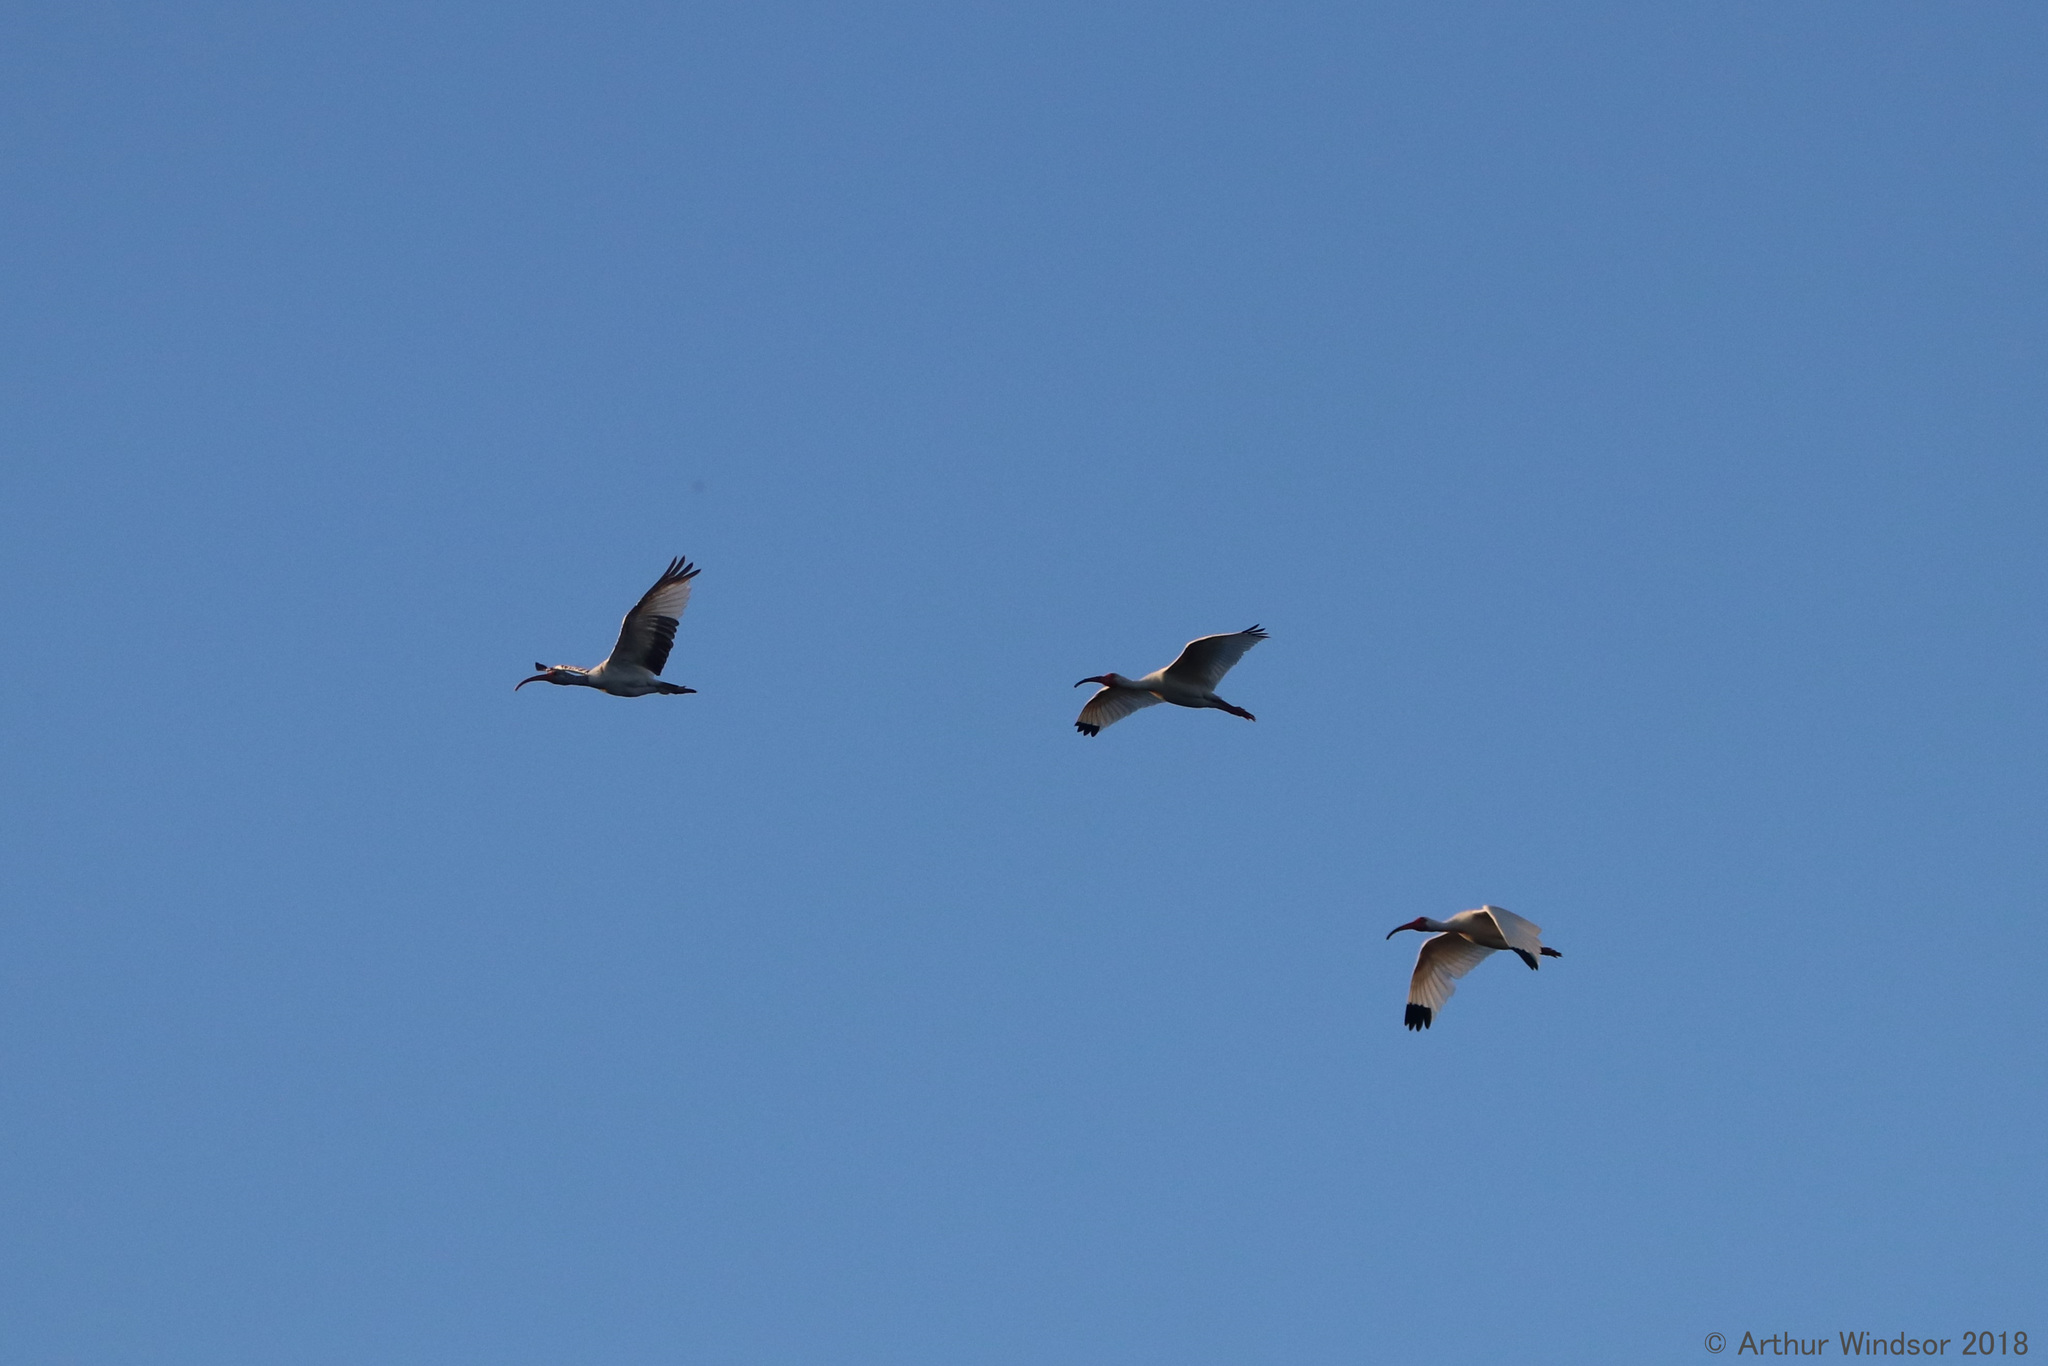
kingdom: Animalia
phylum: Chordata
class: Aves
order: Pelecaniformes
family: Threskiornithidae
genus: Eudocimus
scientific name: Eudocimus albus
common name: White ibis
